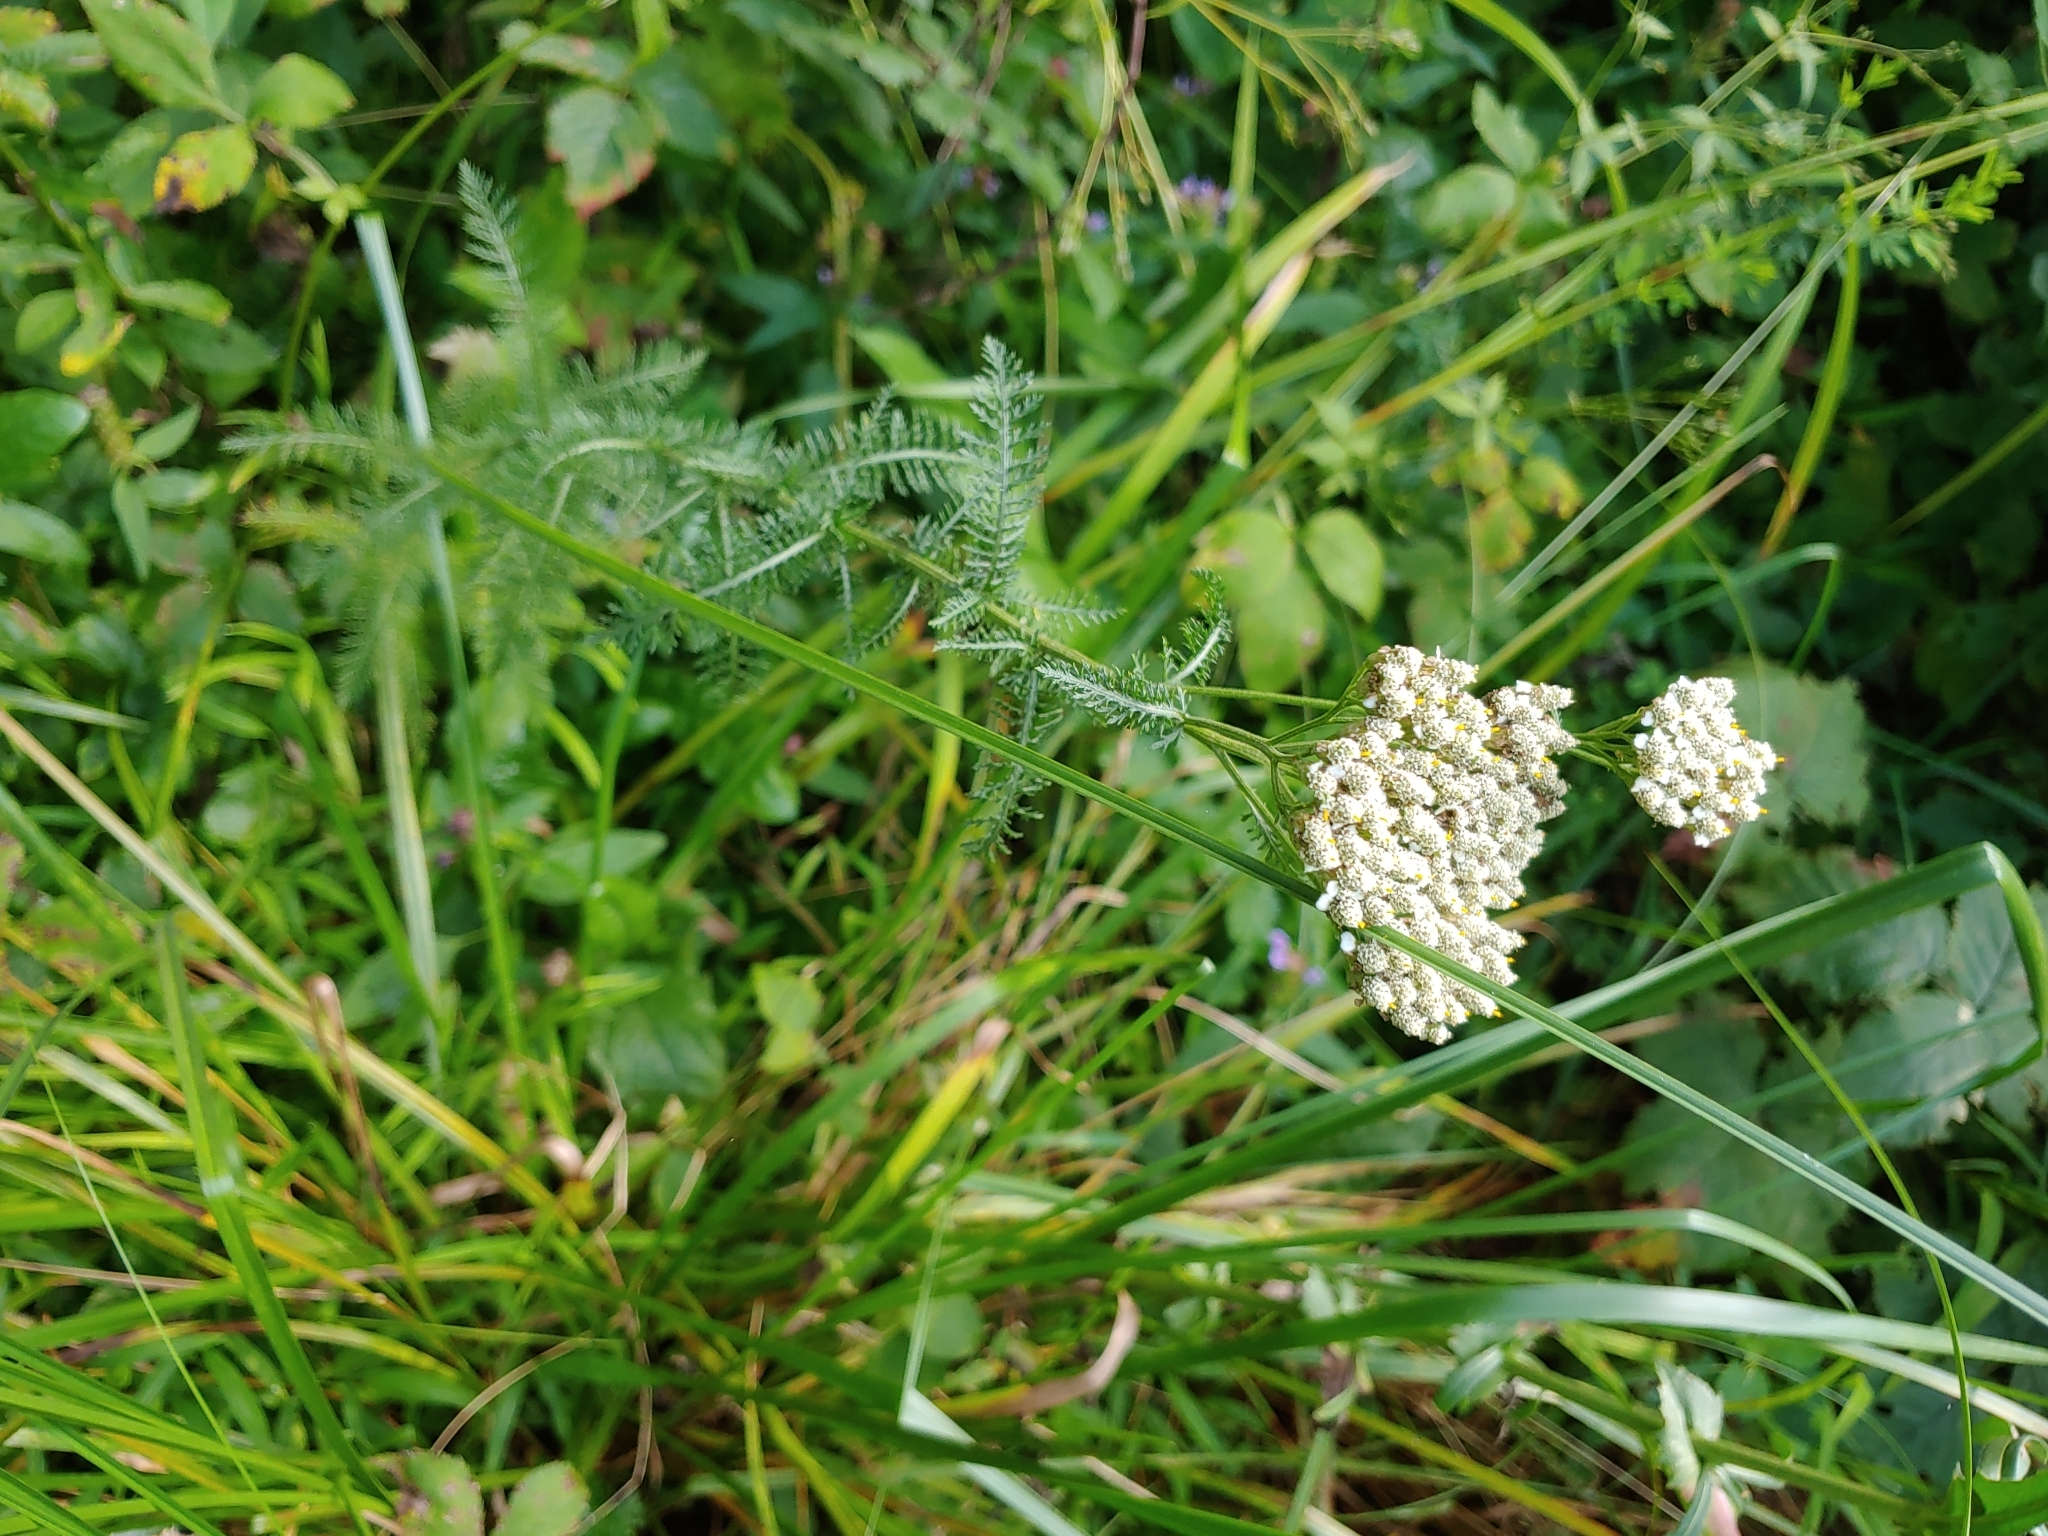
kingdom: Plantae
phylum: Tracheophyta
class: Magnoliopsida
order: Asterales
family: Asteraceae
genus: Achillea
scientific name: Achillea millefolium
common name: Yarrow
